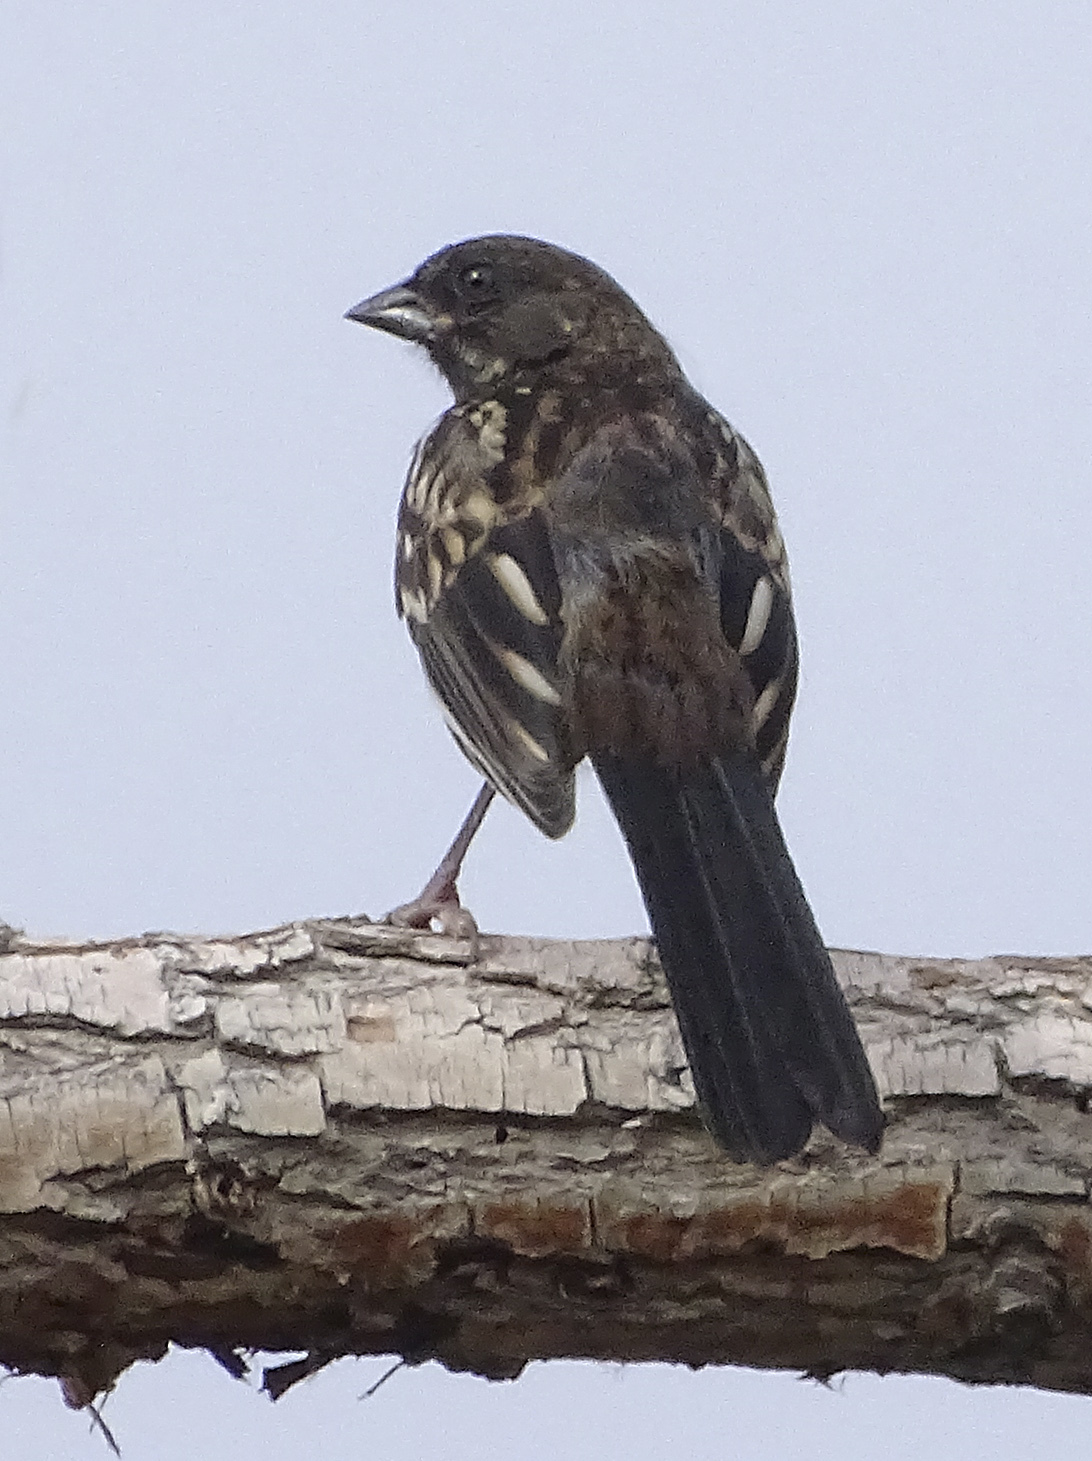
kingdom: Animalia
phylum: Chordata
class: Aves
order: Passeriformes
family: Passerellidae
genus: Pipilo
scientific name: Pipilo maculatus
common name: Spotted towhee
